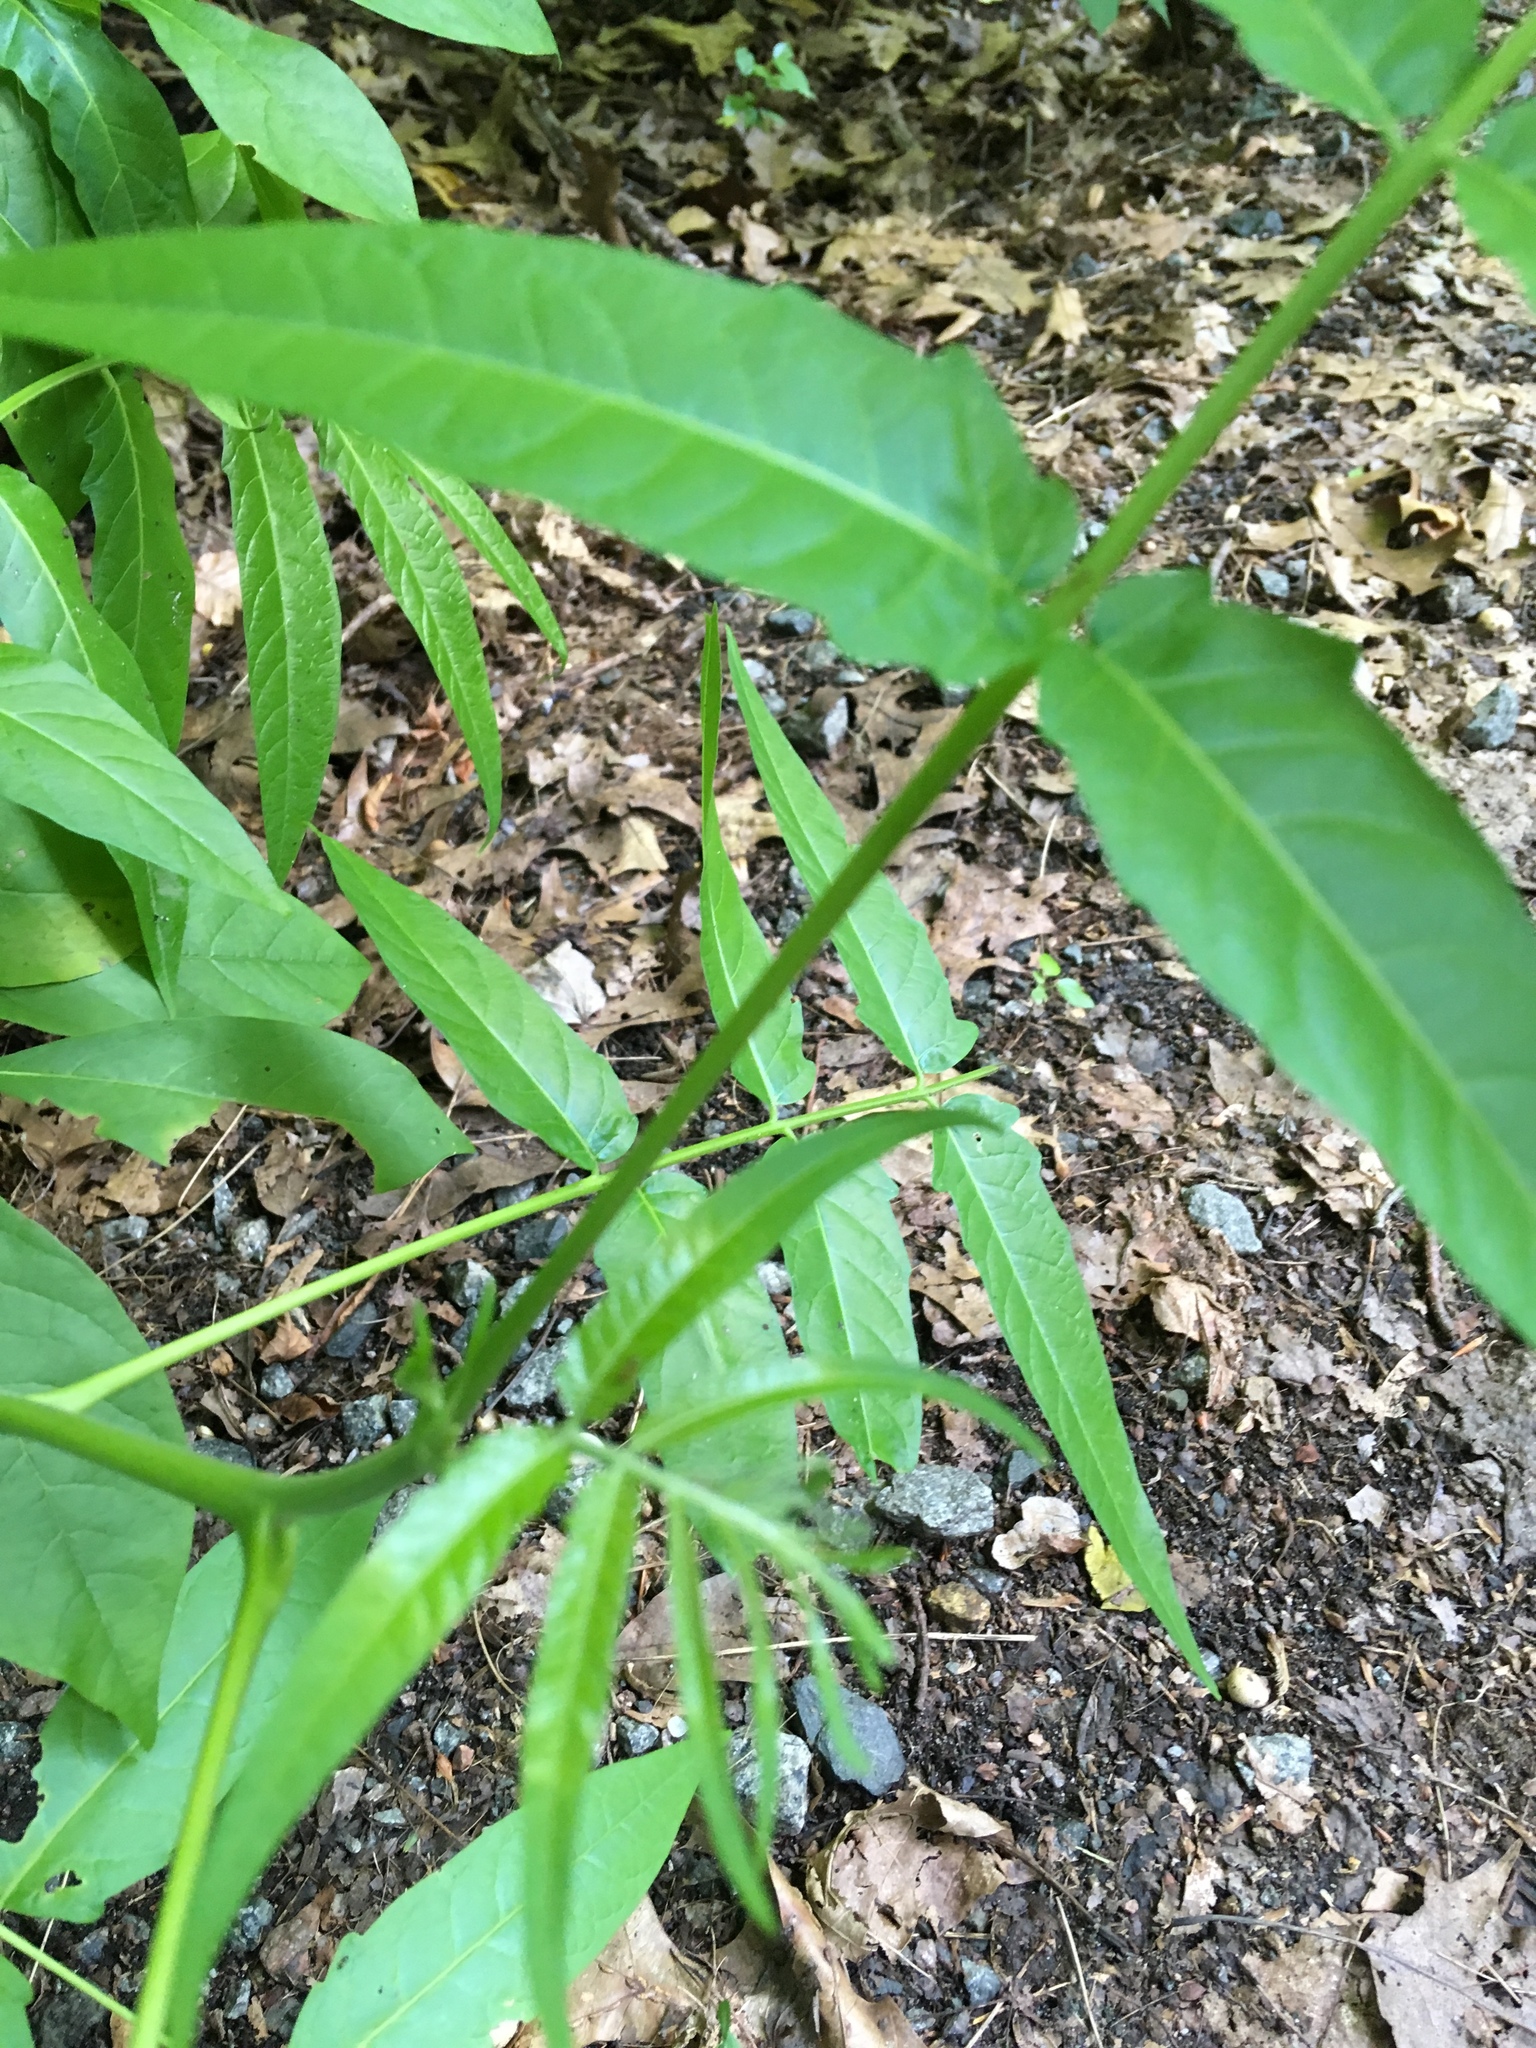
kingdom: Plantae
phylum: Tracheophyta
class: Magnoliopsida
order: Sapindales
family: Simaroubaceae
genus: Ailanthus
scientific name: Ailanthus altissima
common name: Tree-of-heaven
